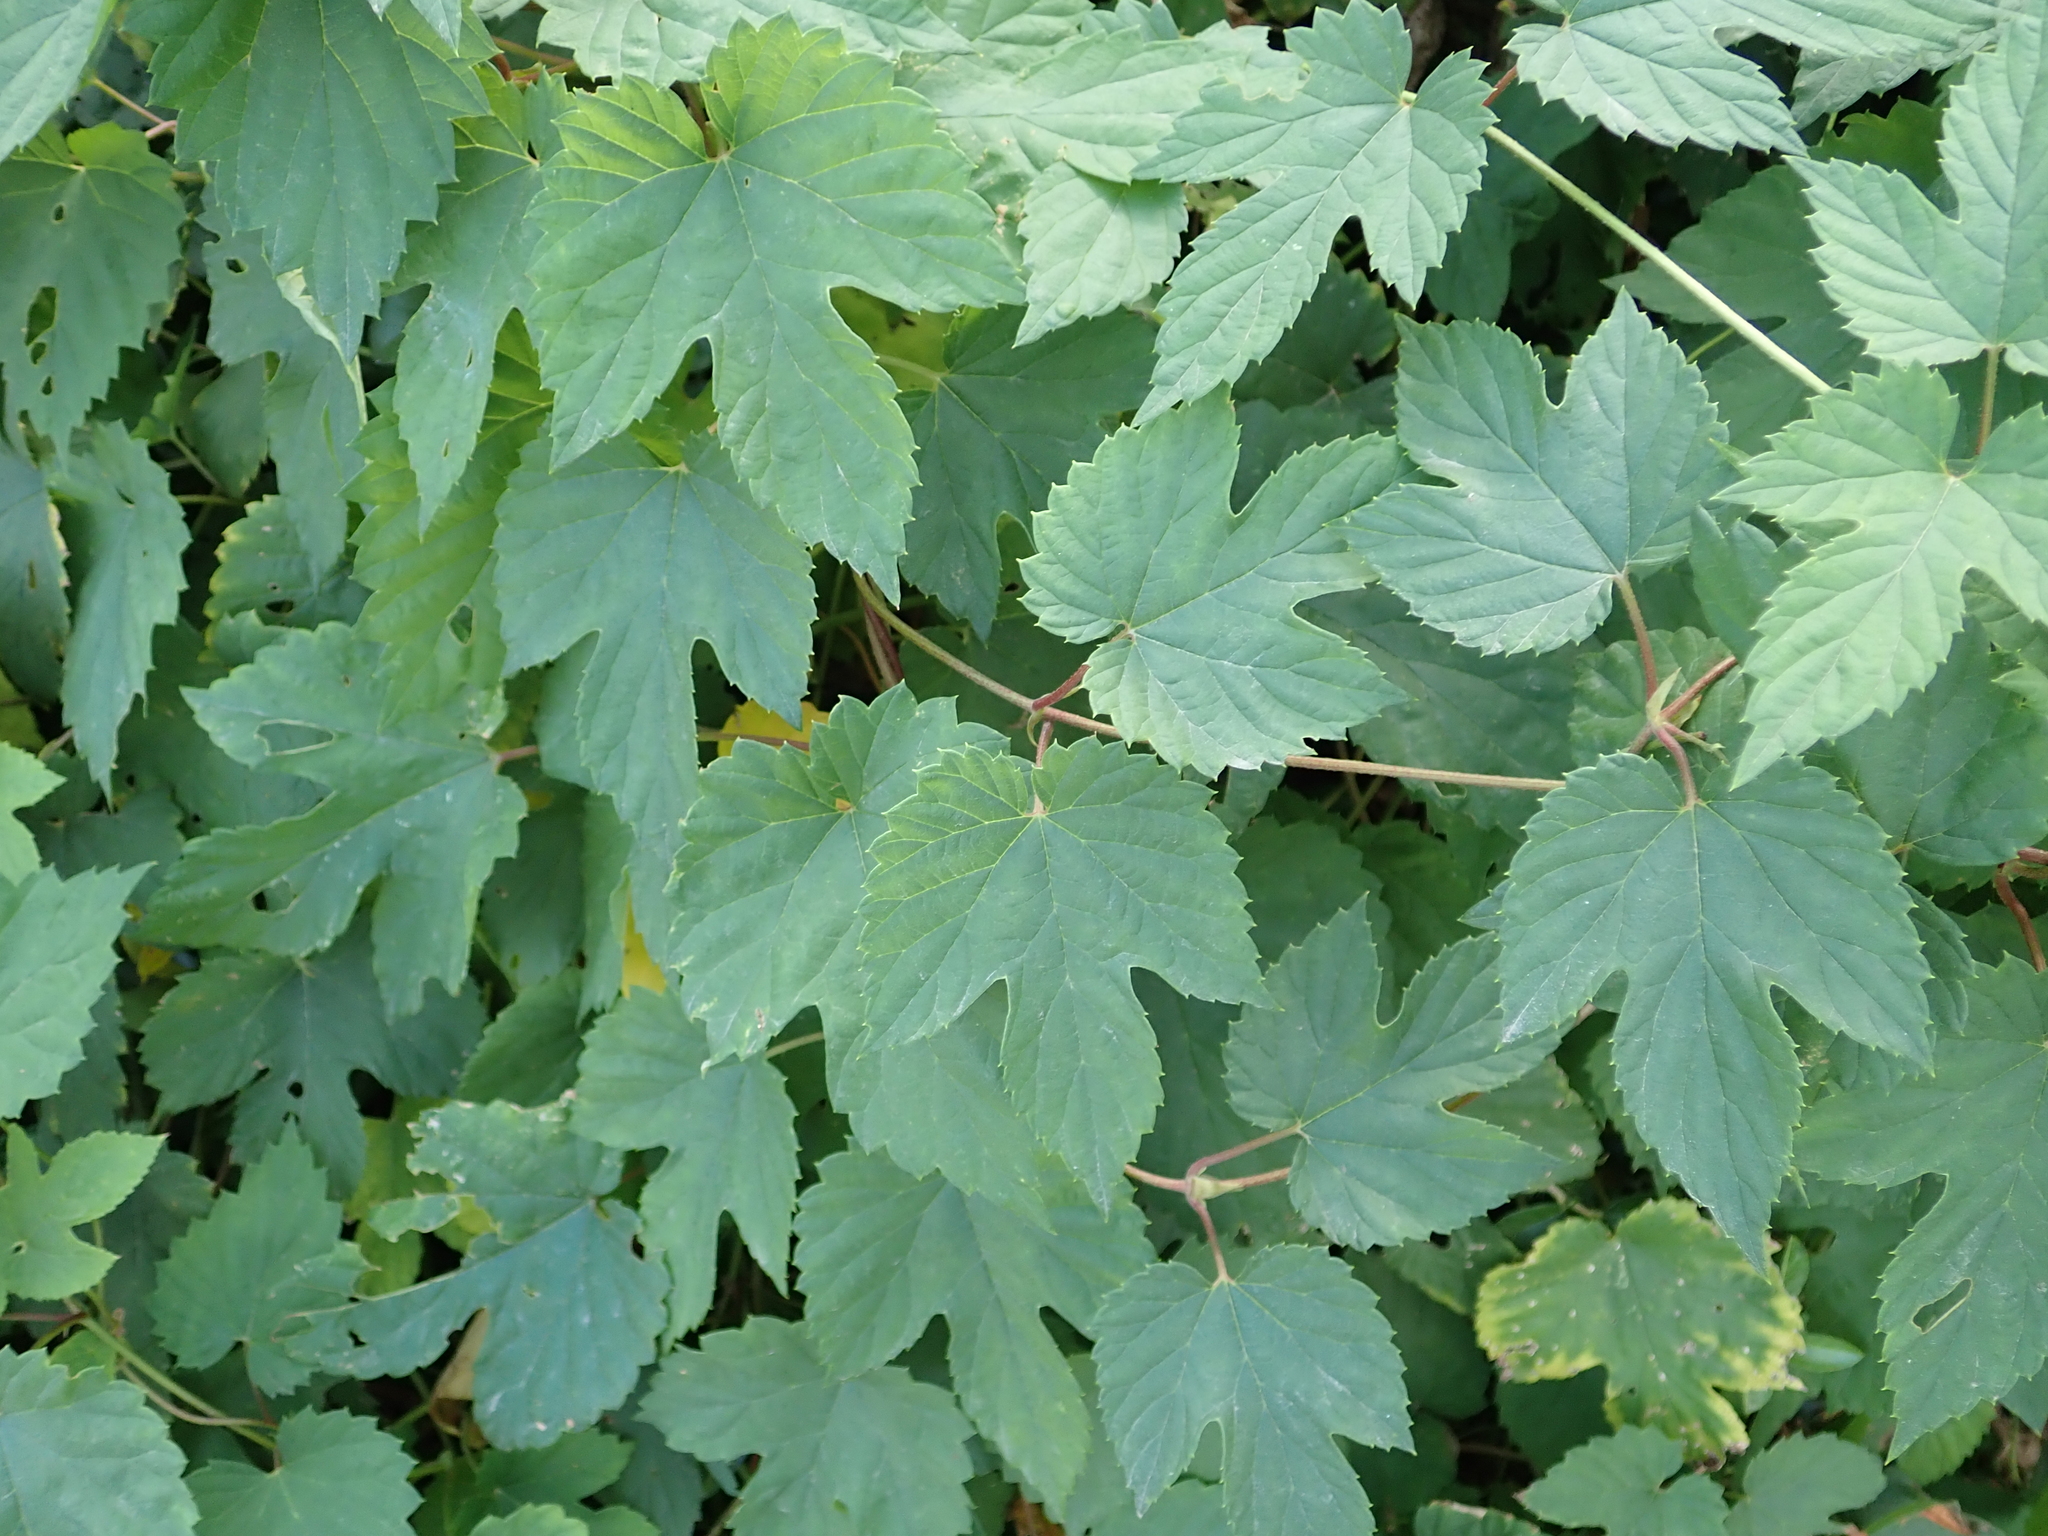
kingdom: Plantae
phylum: Tracheophyta
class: Magnoliopsida
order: Rosales
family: Cannabaceae
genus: Humulus
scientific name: Humulus lupulus
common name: Hop
